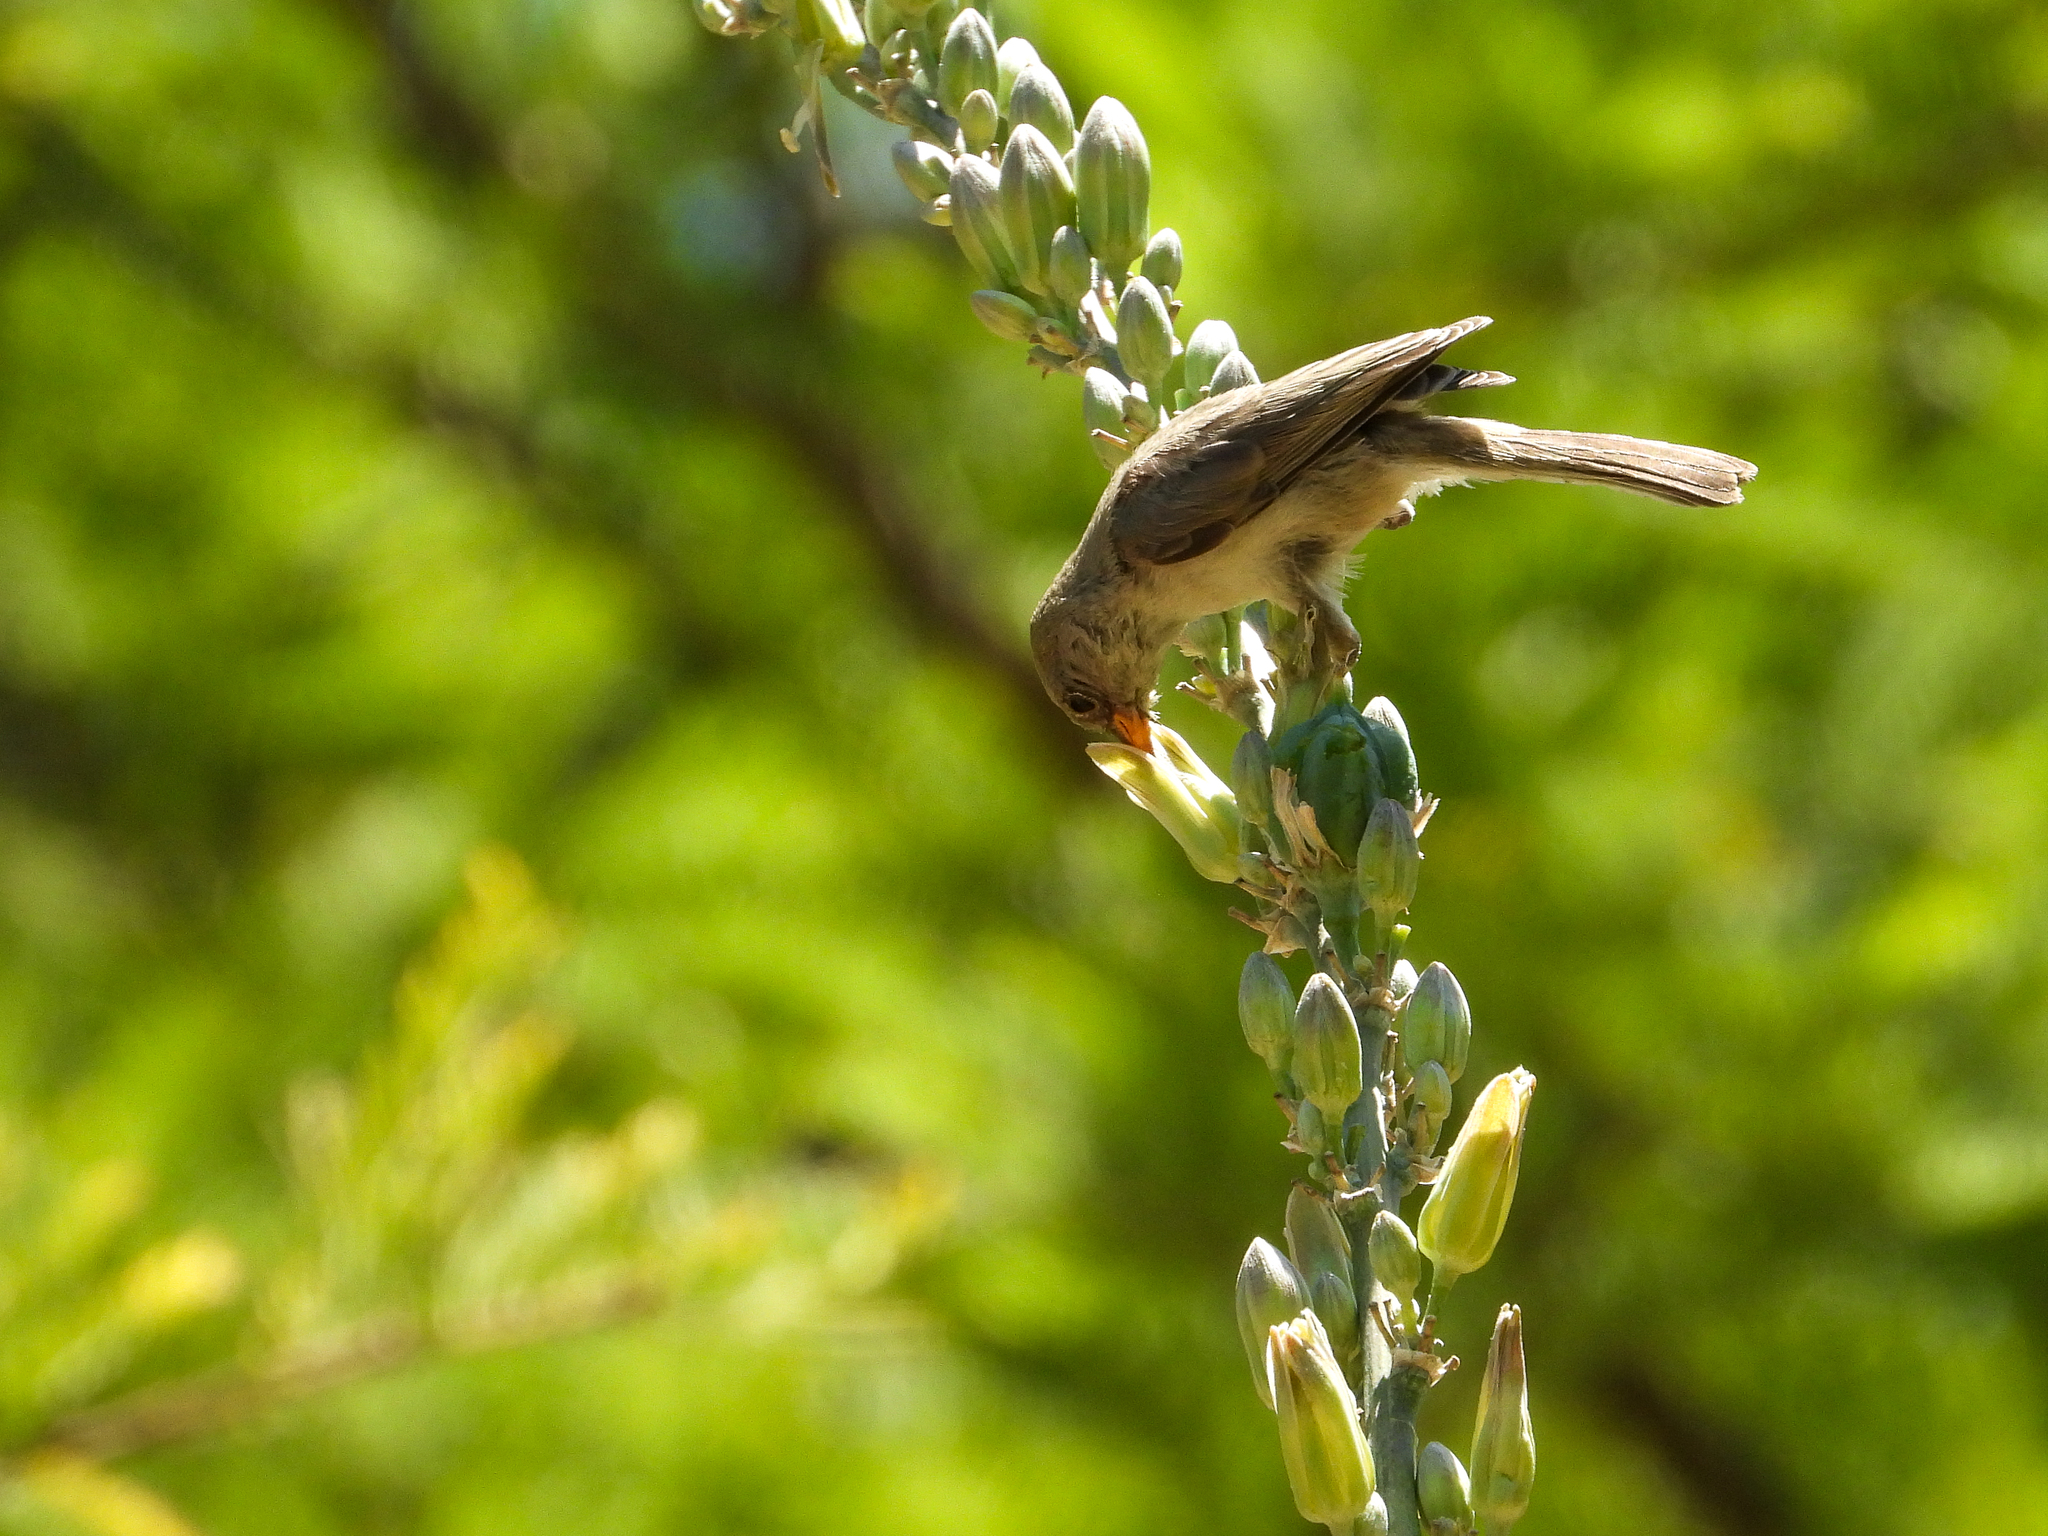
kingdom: Animalia
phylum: Chordata
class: Aves
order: Passeriformes
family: Remizidae
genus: Auriparus
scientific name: Auriparus flaviceps
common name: Verdin
